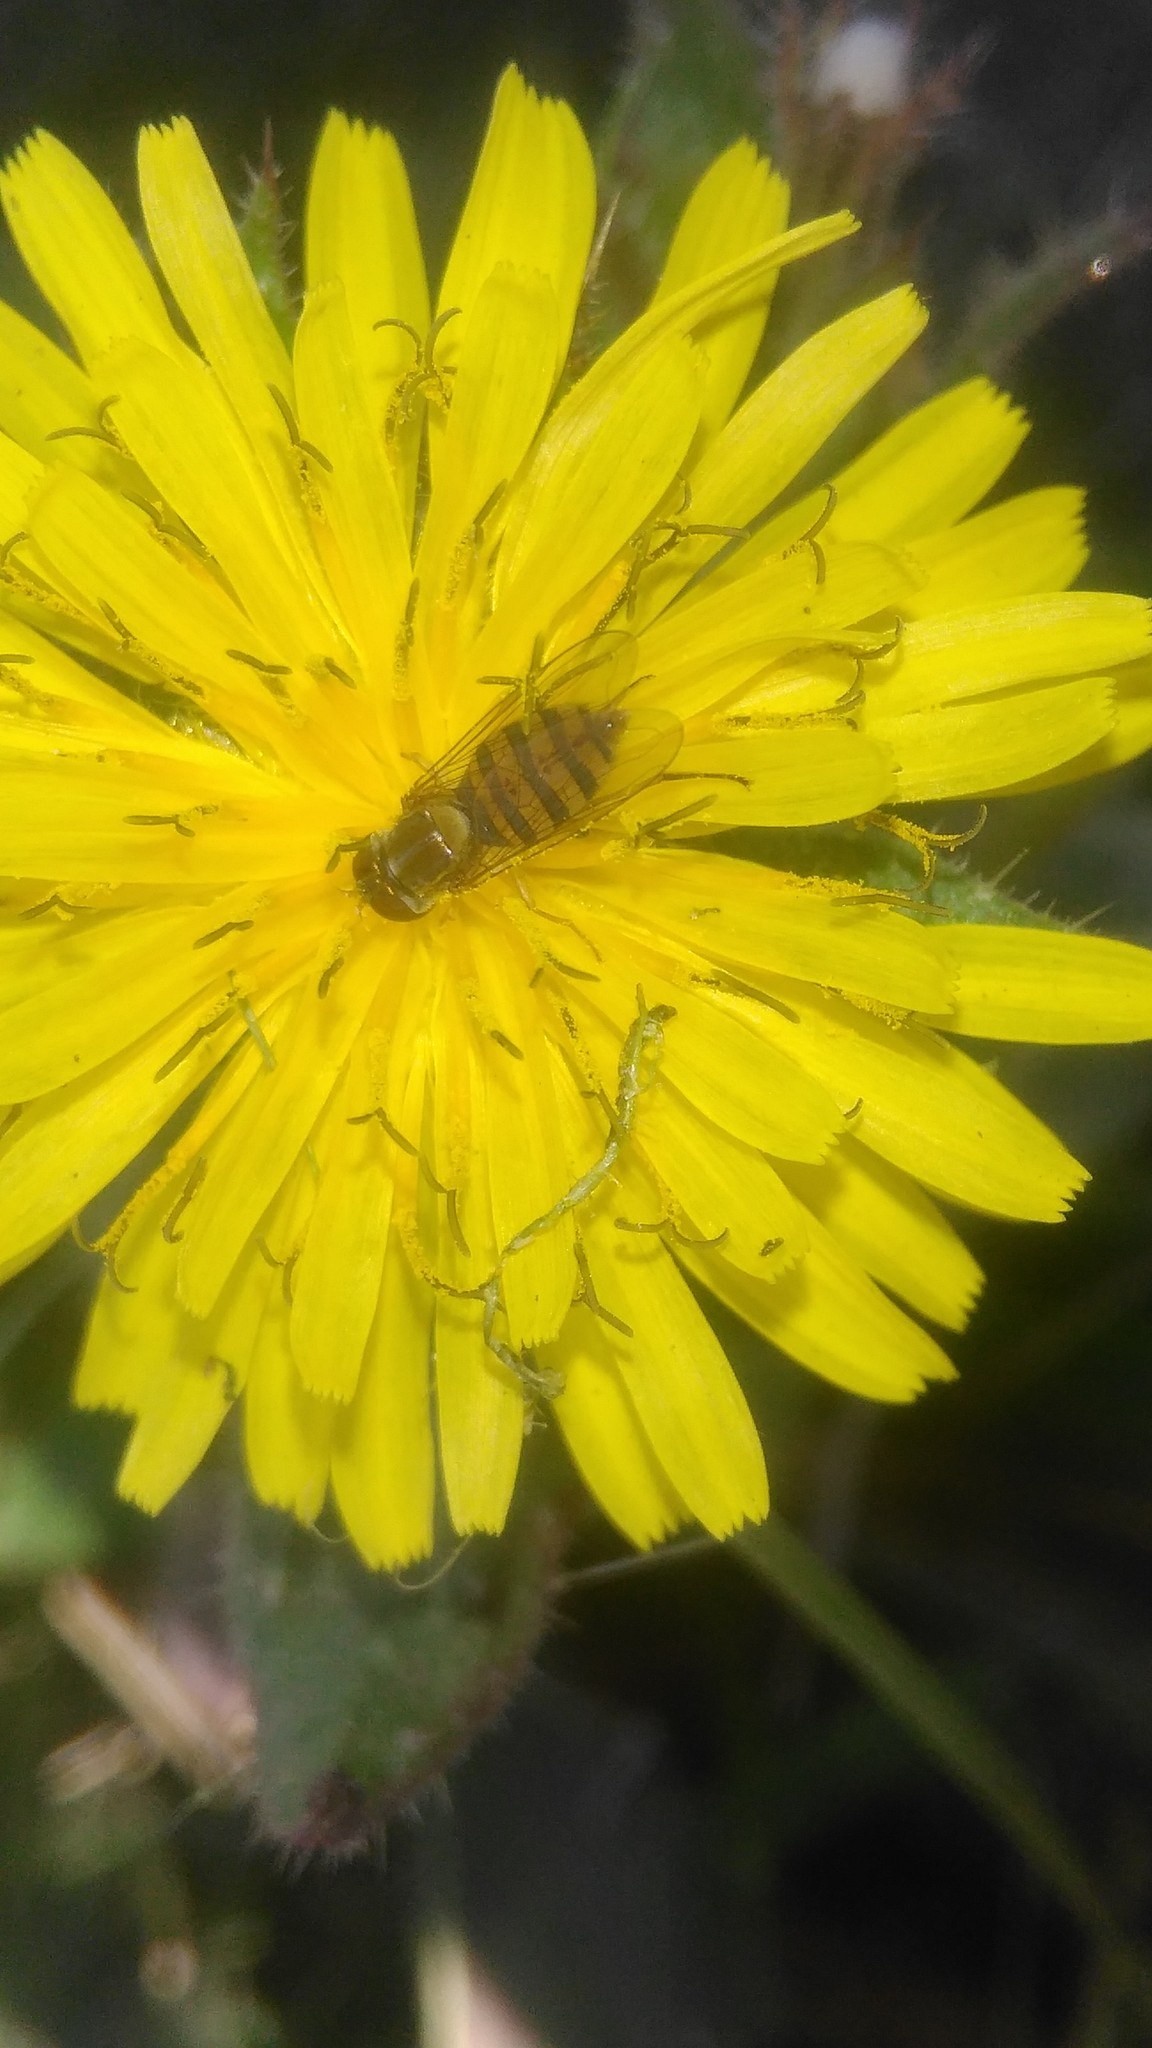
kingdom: Plantae
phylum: Tracheophyta
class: Magnoliopsida
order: Asterales
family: Asteraceae
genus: Helminthotheca
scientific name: Helminthotheca echioides
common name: Ox-tongue
